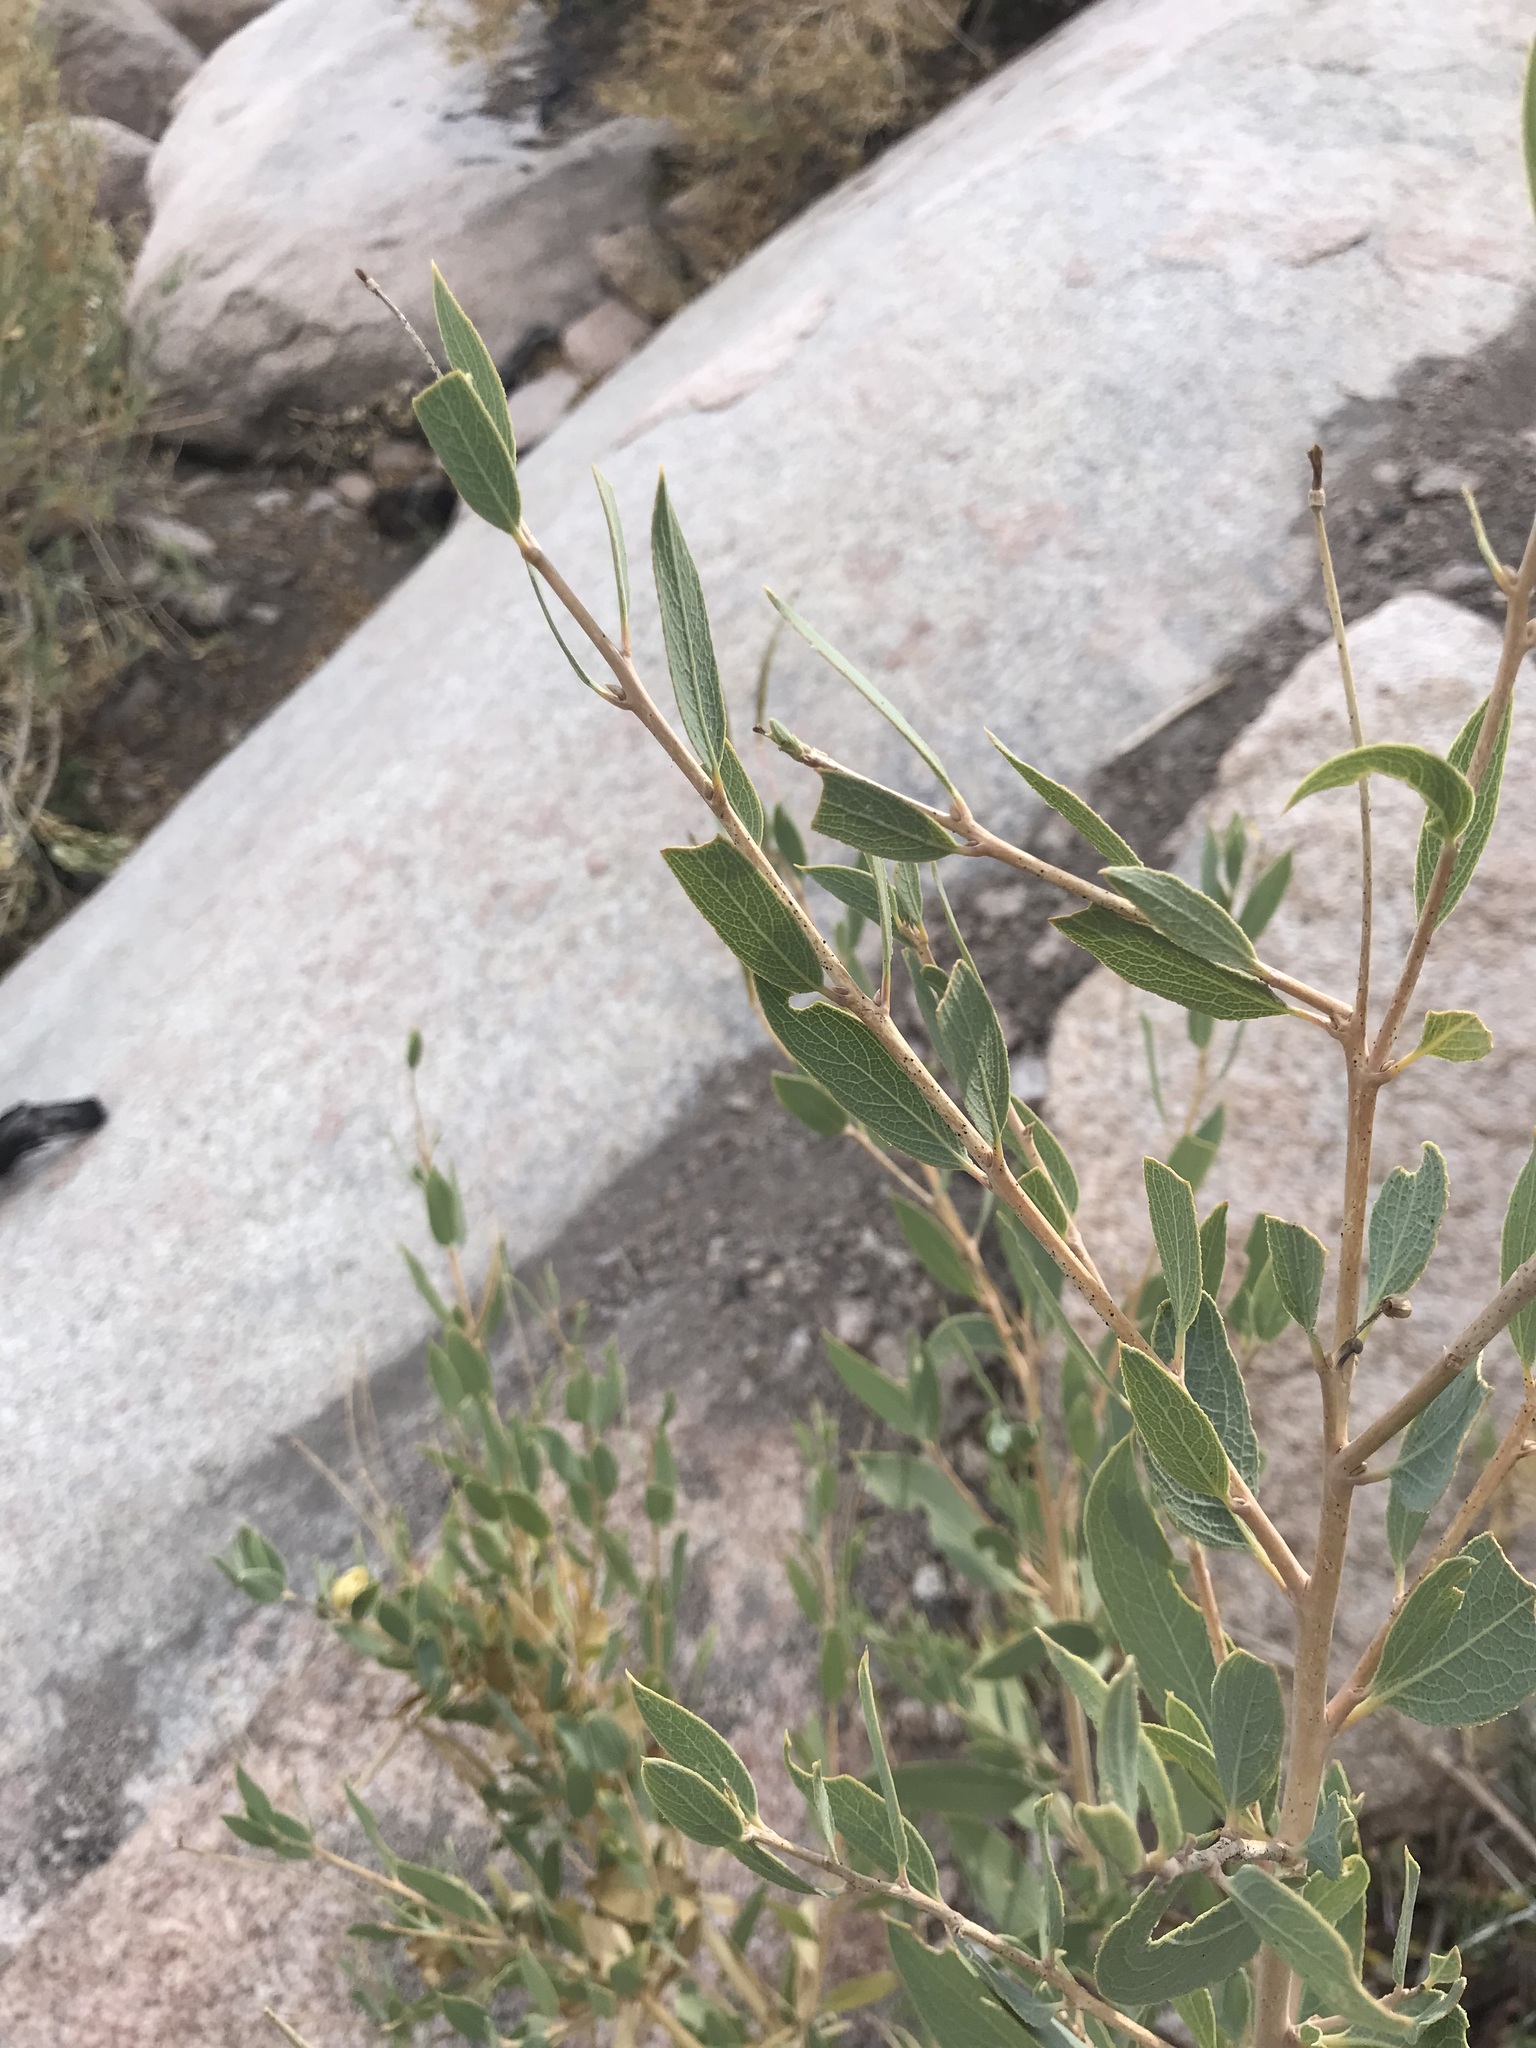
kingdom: Plantae
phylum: Tracheophyta
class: Magnoliopsida
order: Ranunculales
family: Papaveraceae
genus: Dendromecon
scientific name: Dendromecon rigida
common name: Tree poppy
